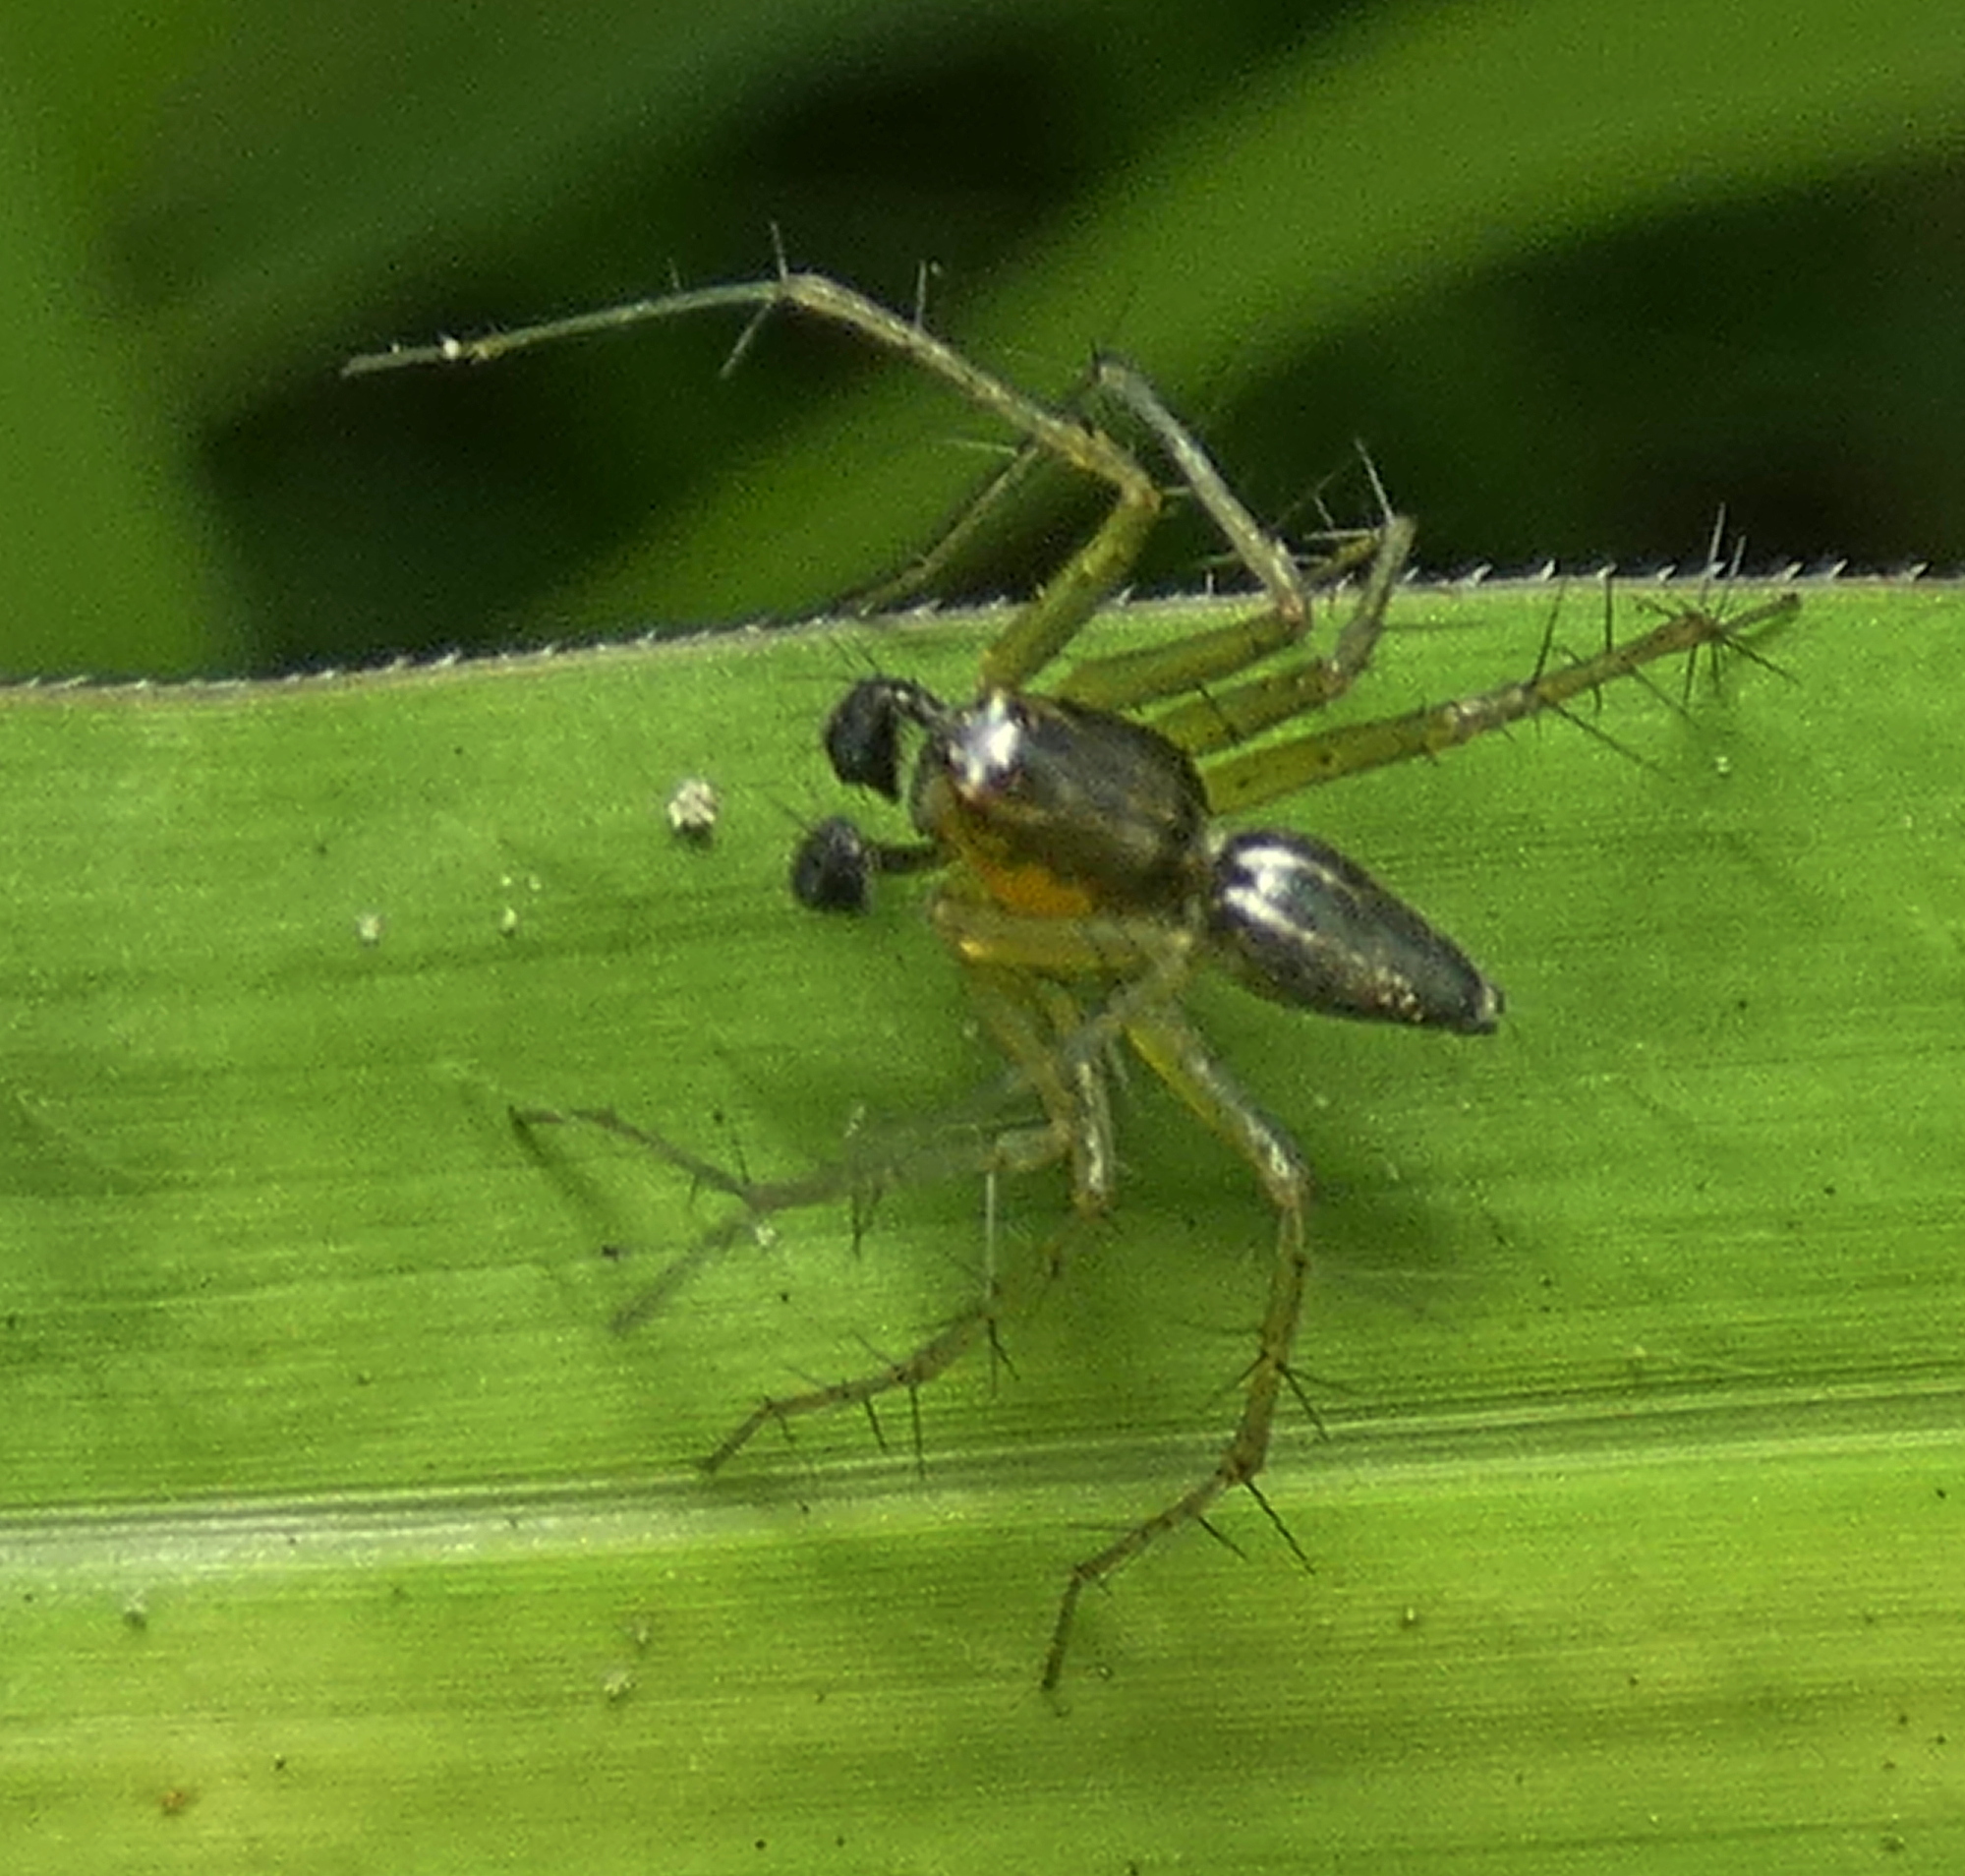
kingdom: Animalia
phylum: Arthropoda
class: Arachnida
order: Araneae
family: Oxyopidae
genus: Oxyopes
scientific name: Oxyopes salticus
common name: Lynx spiders
